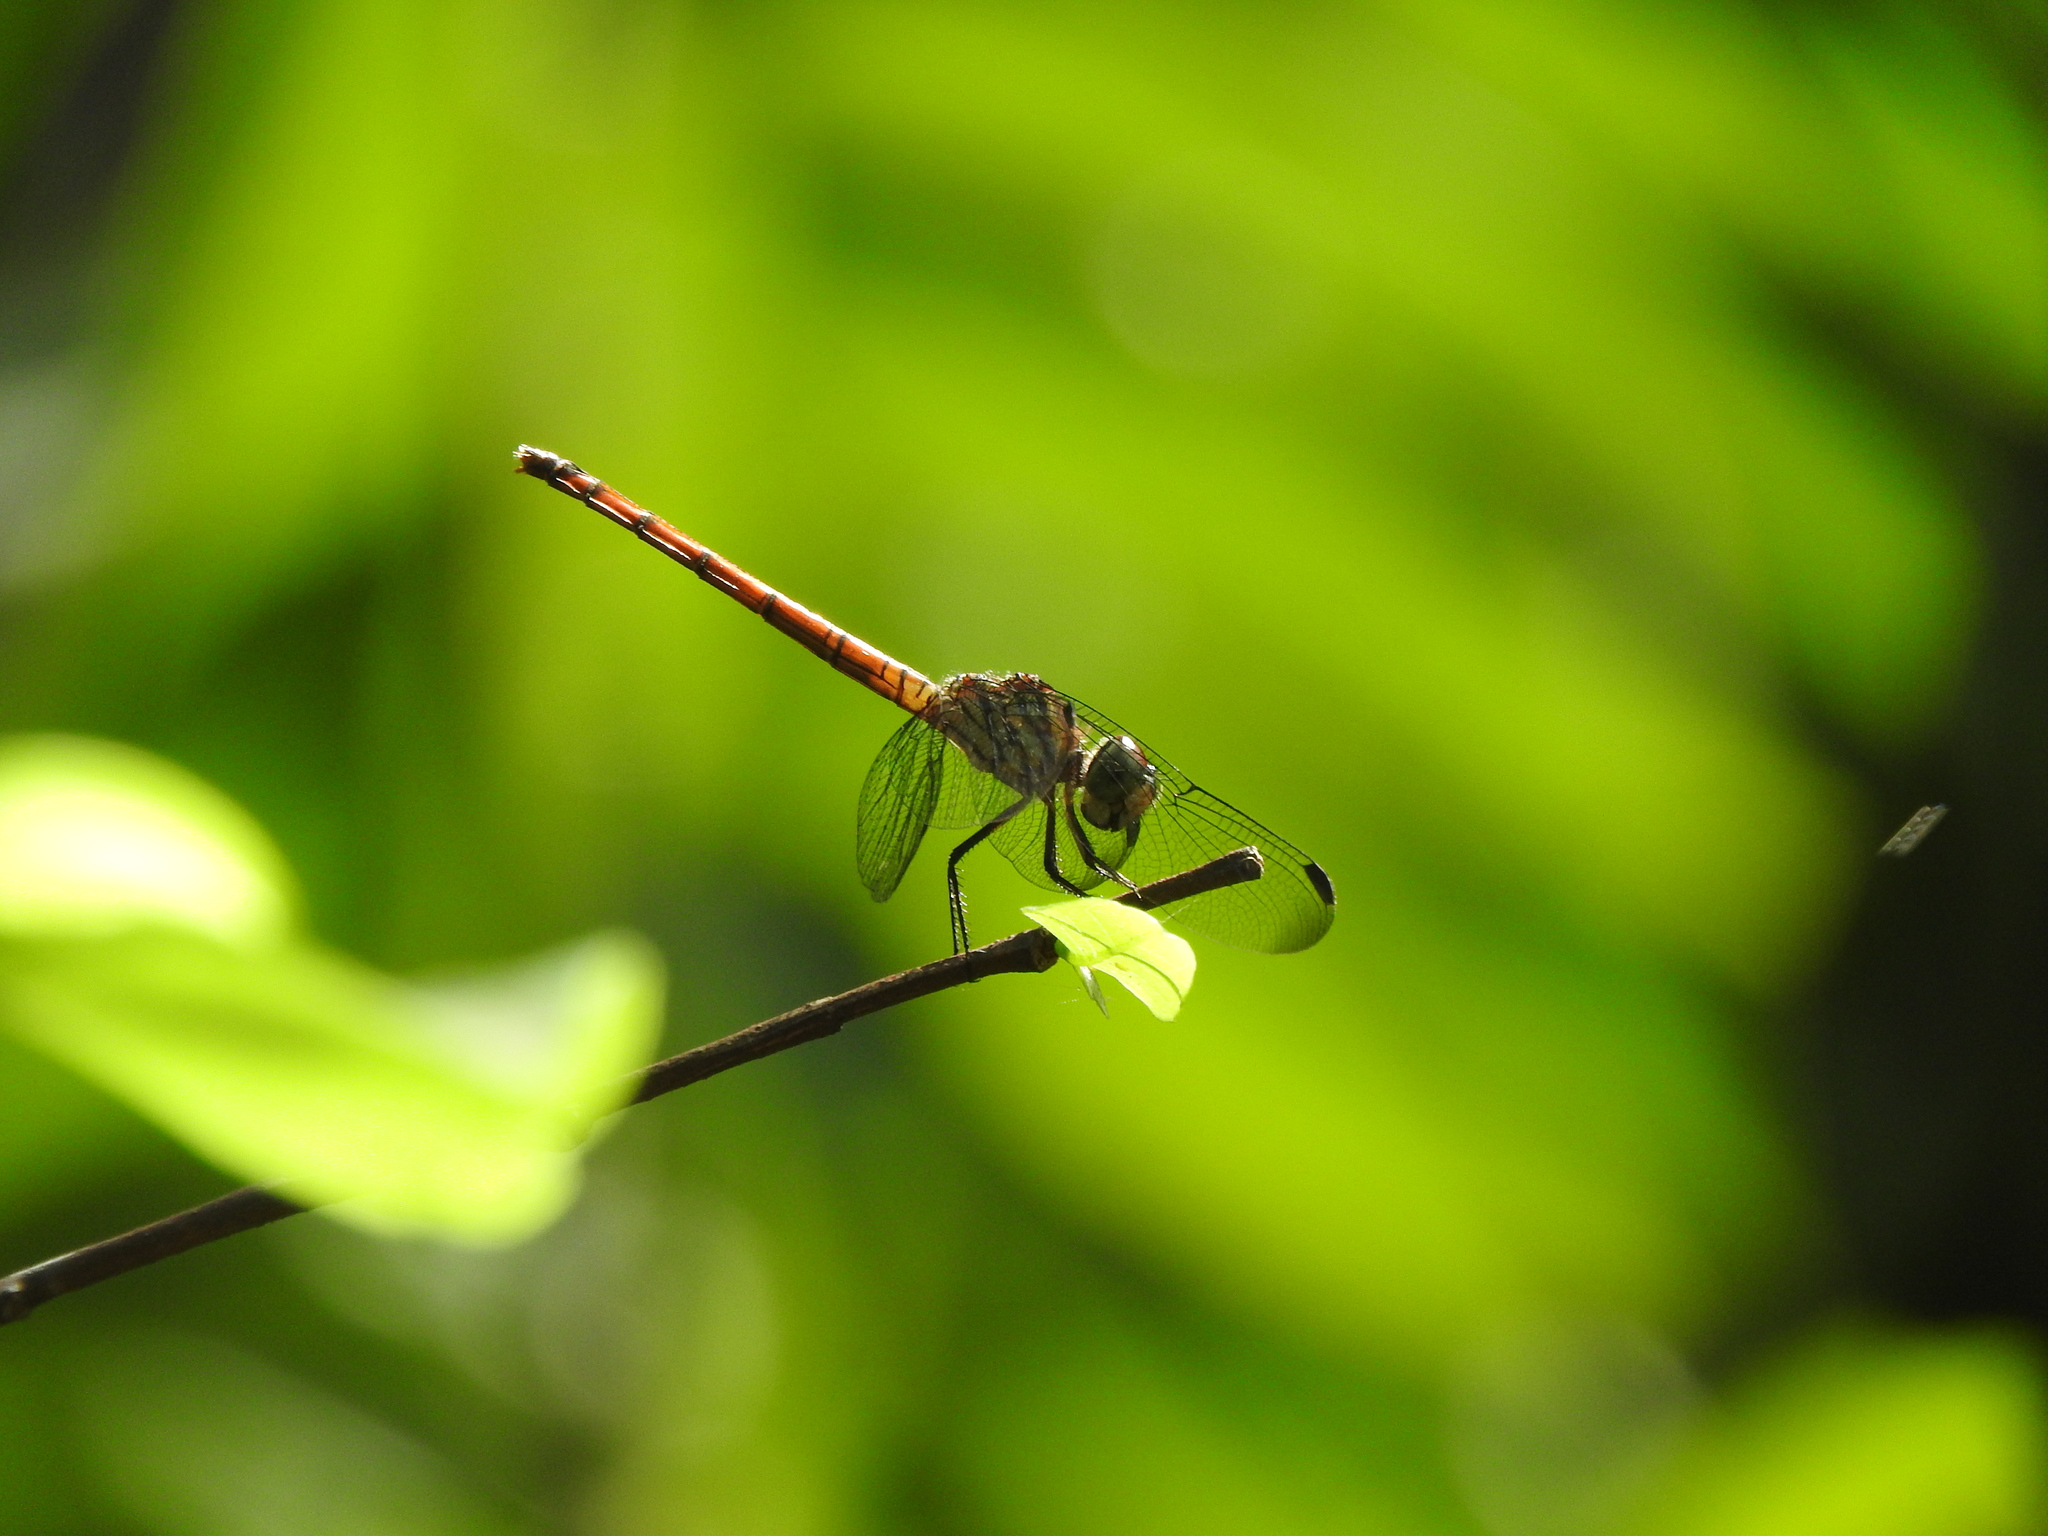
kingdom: Animalia
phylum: Arthropoda
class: Insecta
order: Odonata
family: Libellulidae
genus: Lathrecista
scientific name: Lathrecista asiatica
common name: Scarlet grenadier
